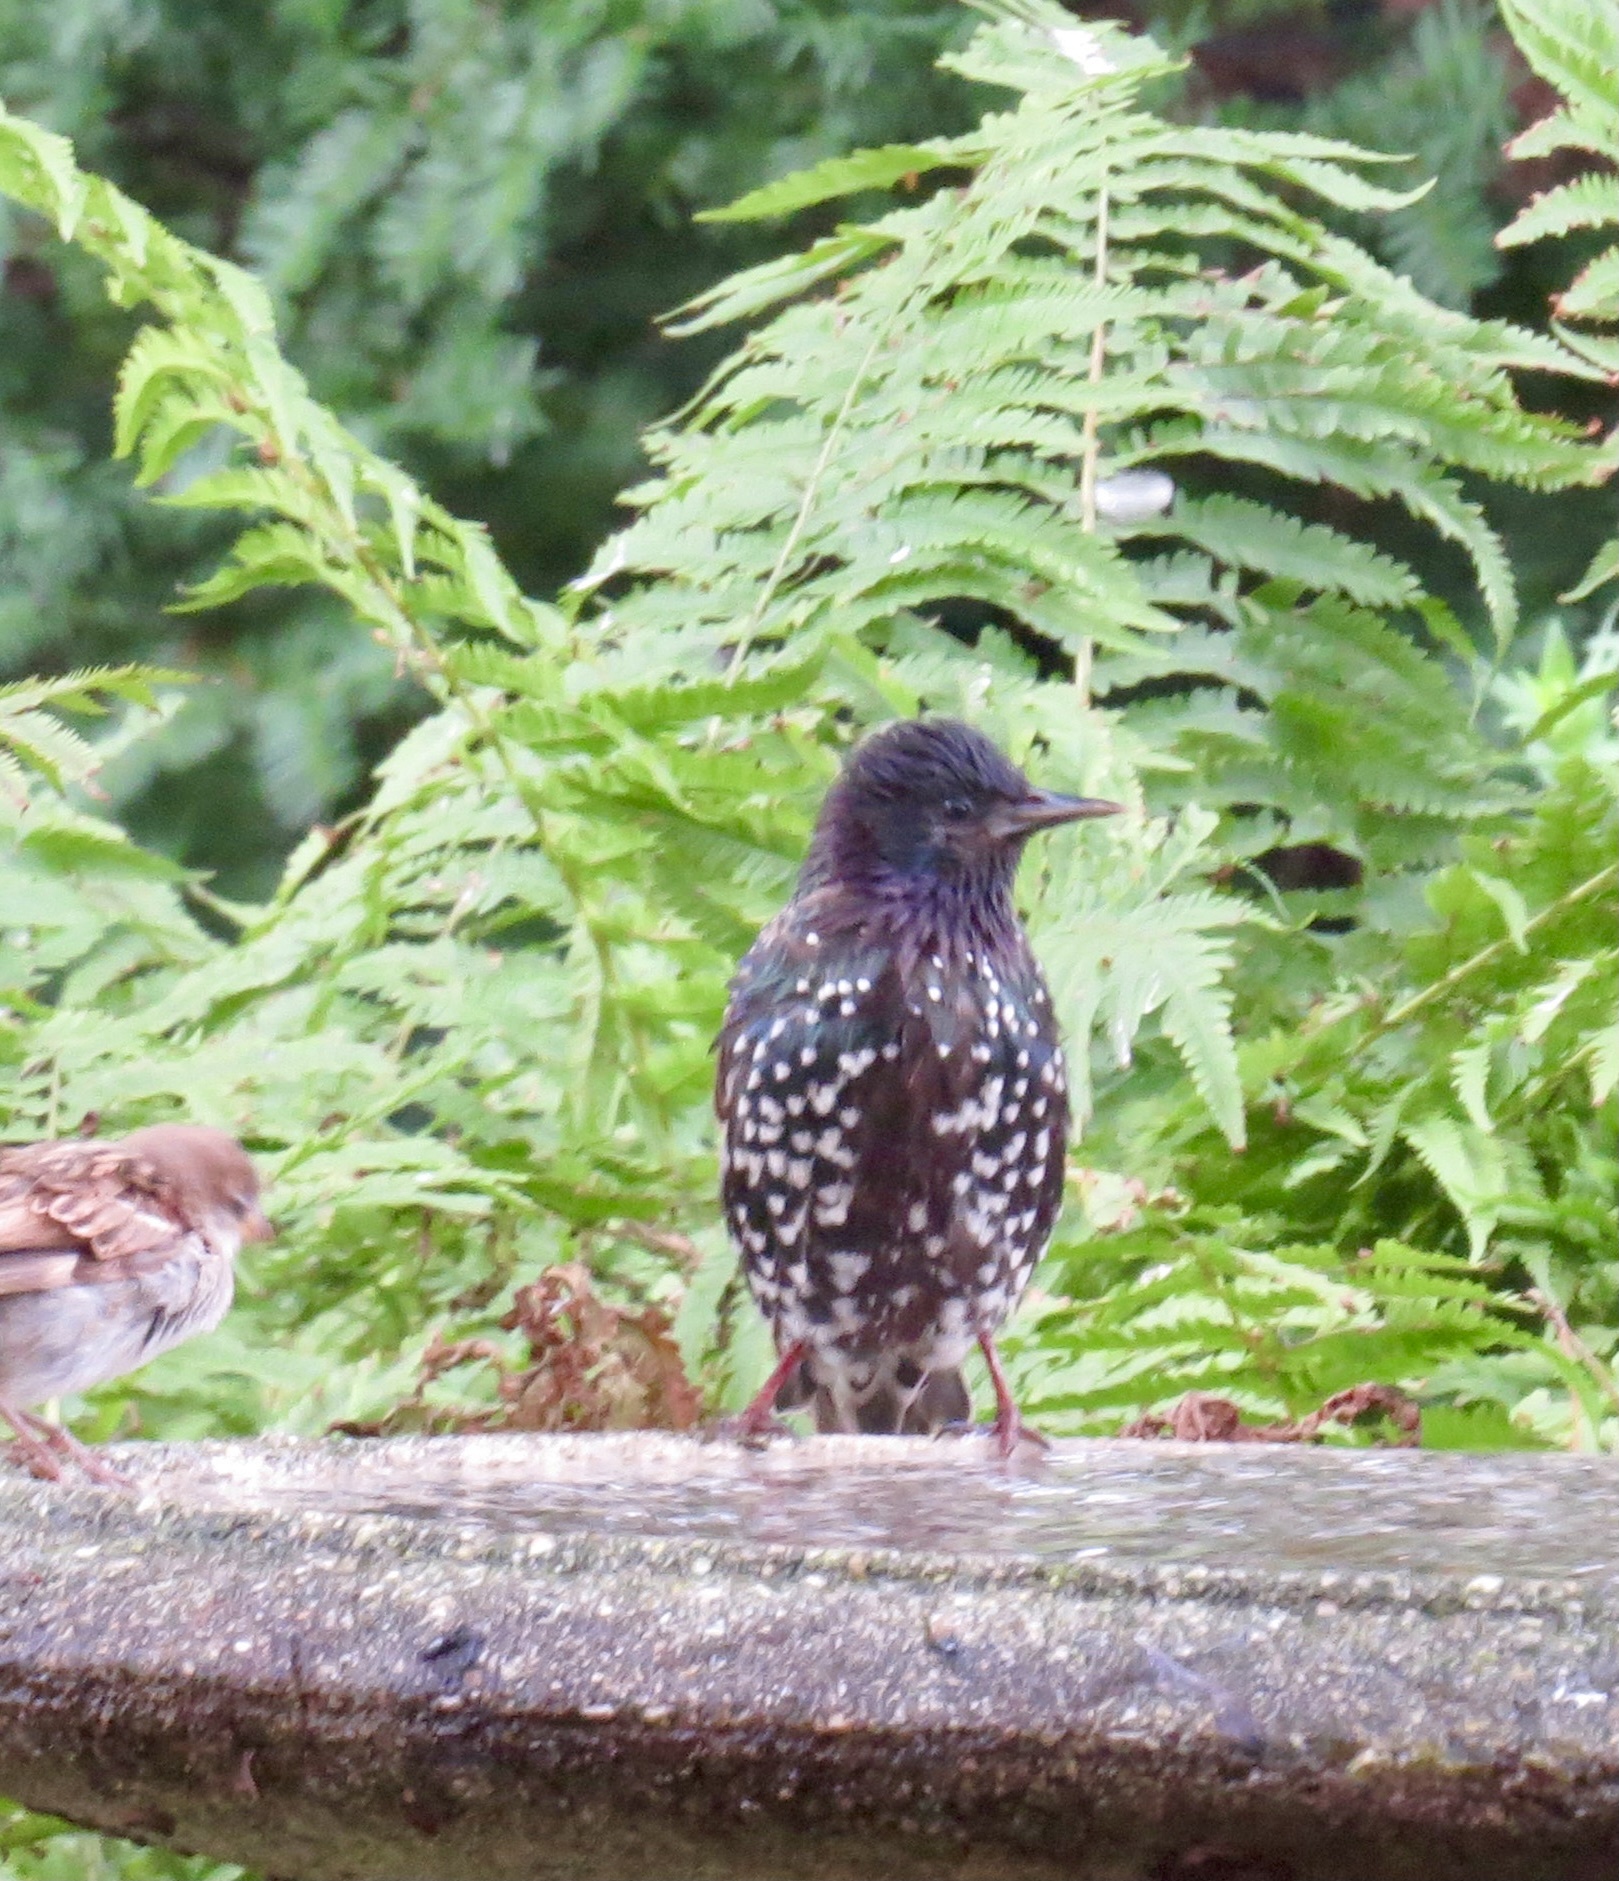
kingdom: Animalia
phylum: Chordata
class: Aves
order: Passeriformes
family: Sturnidae
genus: Sturnus
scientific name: Sturnus vulgaris
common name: Common starling
